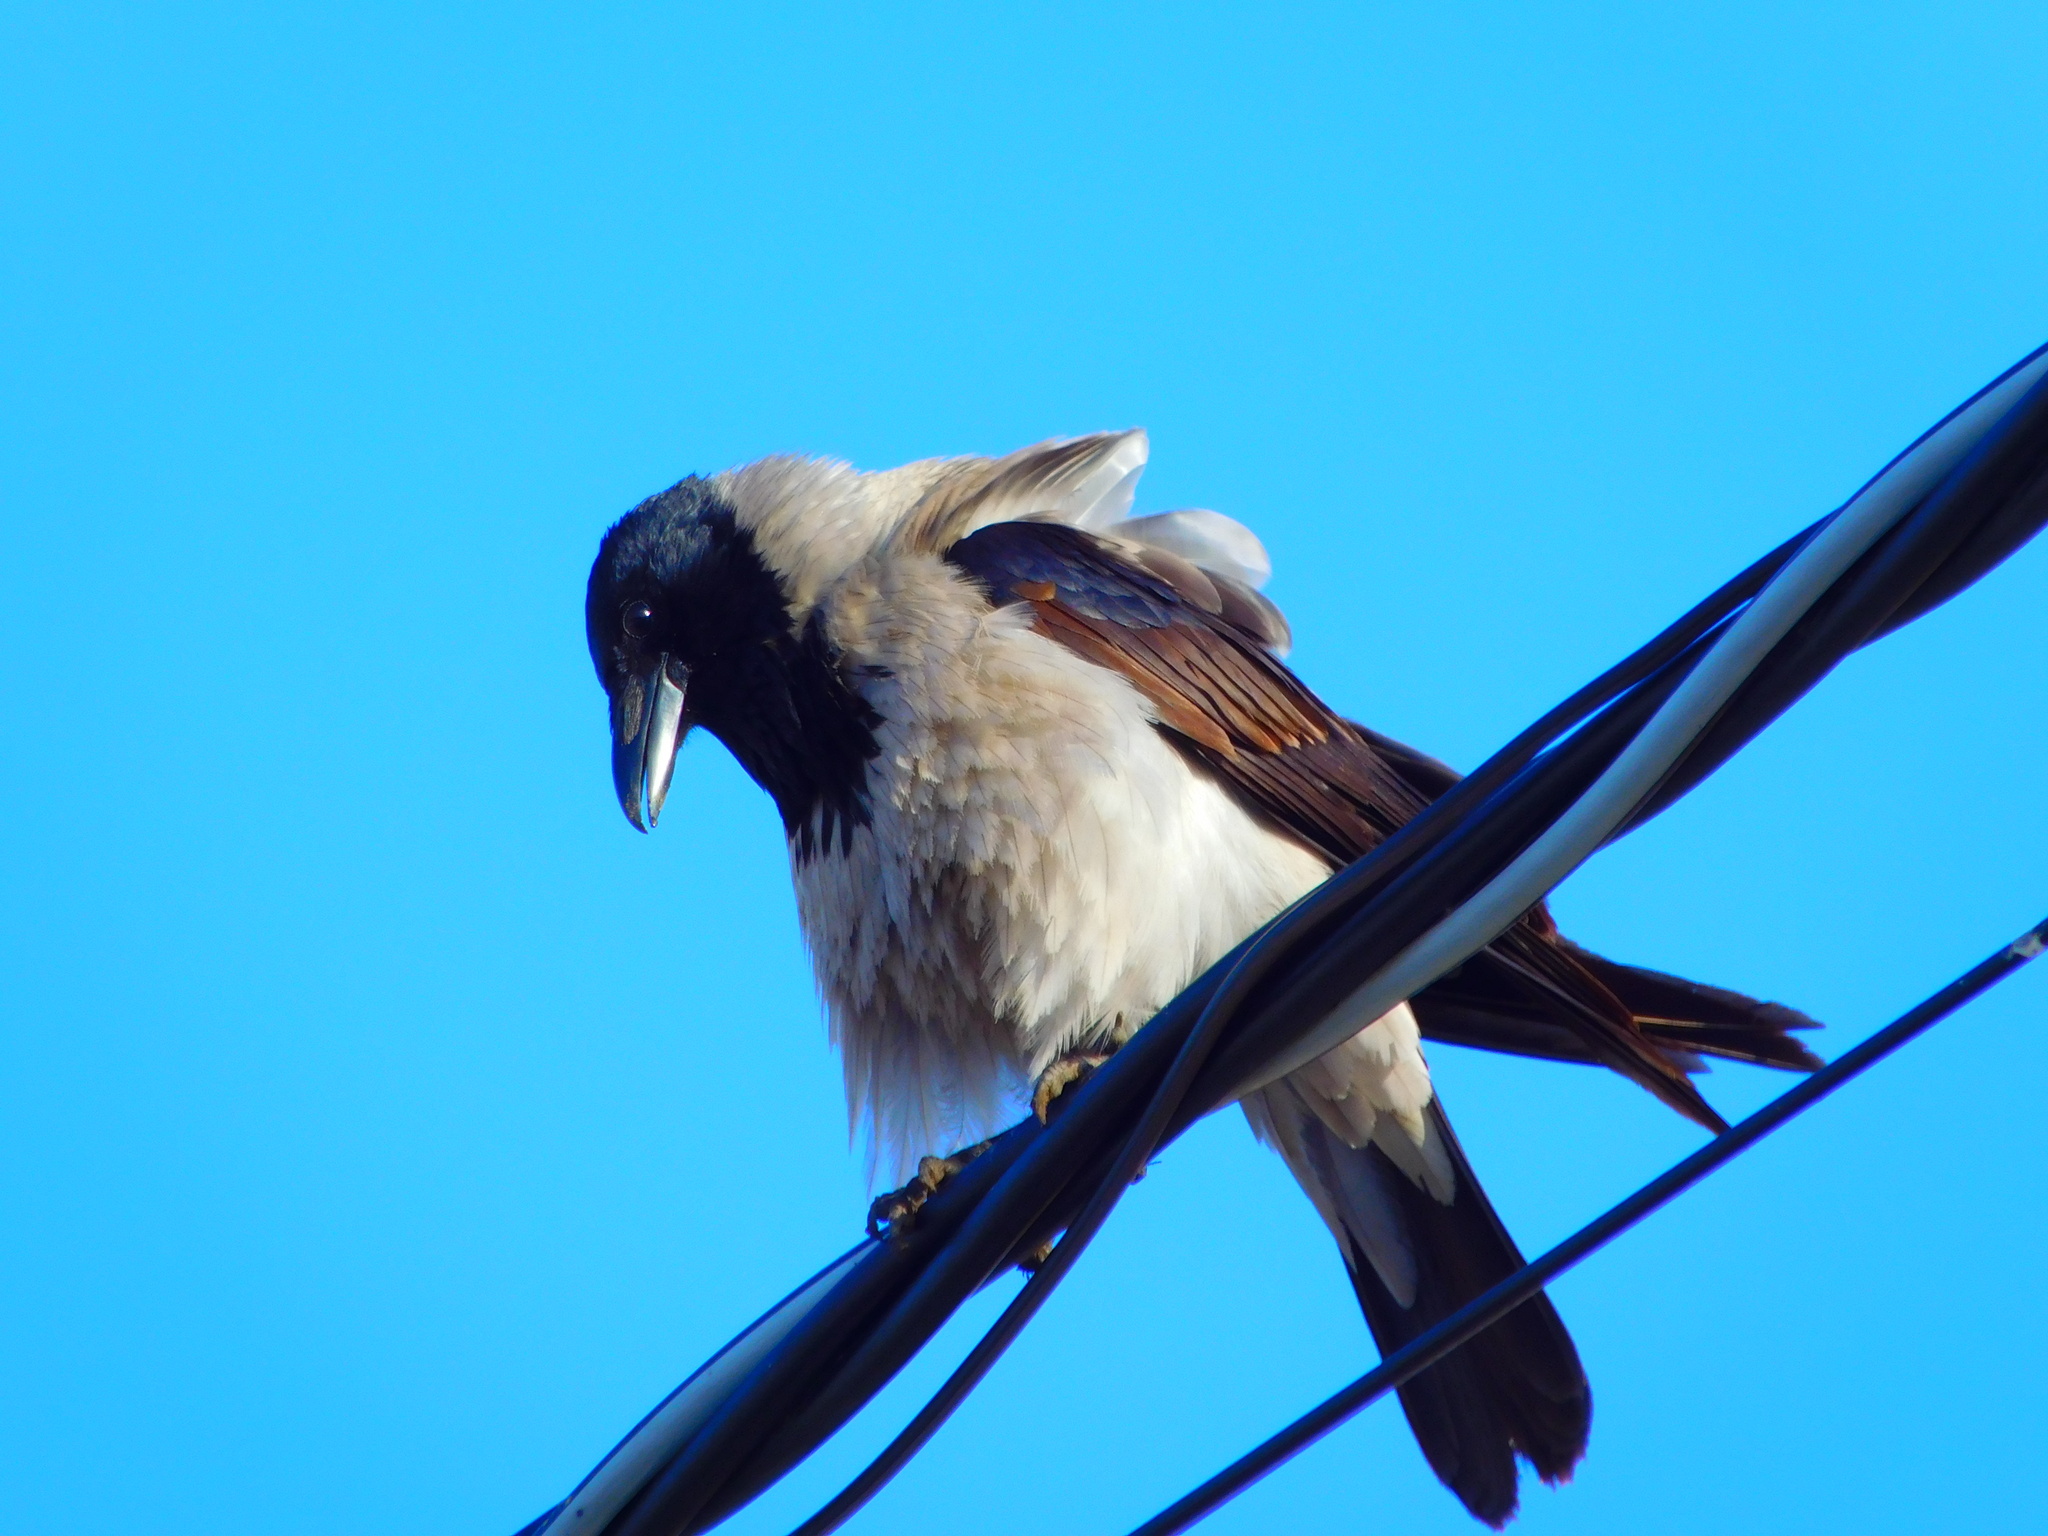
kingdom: Animalia
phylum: Chordata
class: Aves
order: Passeriformes
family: Corvidae
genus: Corvus
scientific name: Corvus cornix
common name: Hooded crow
